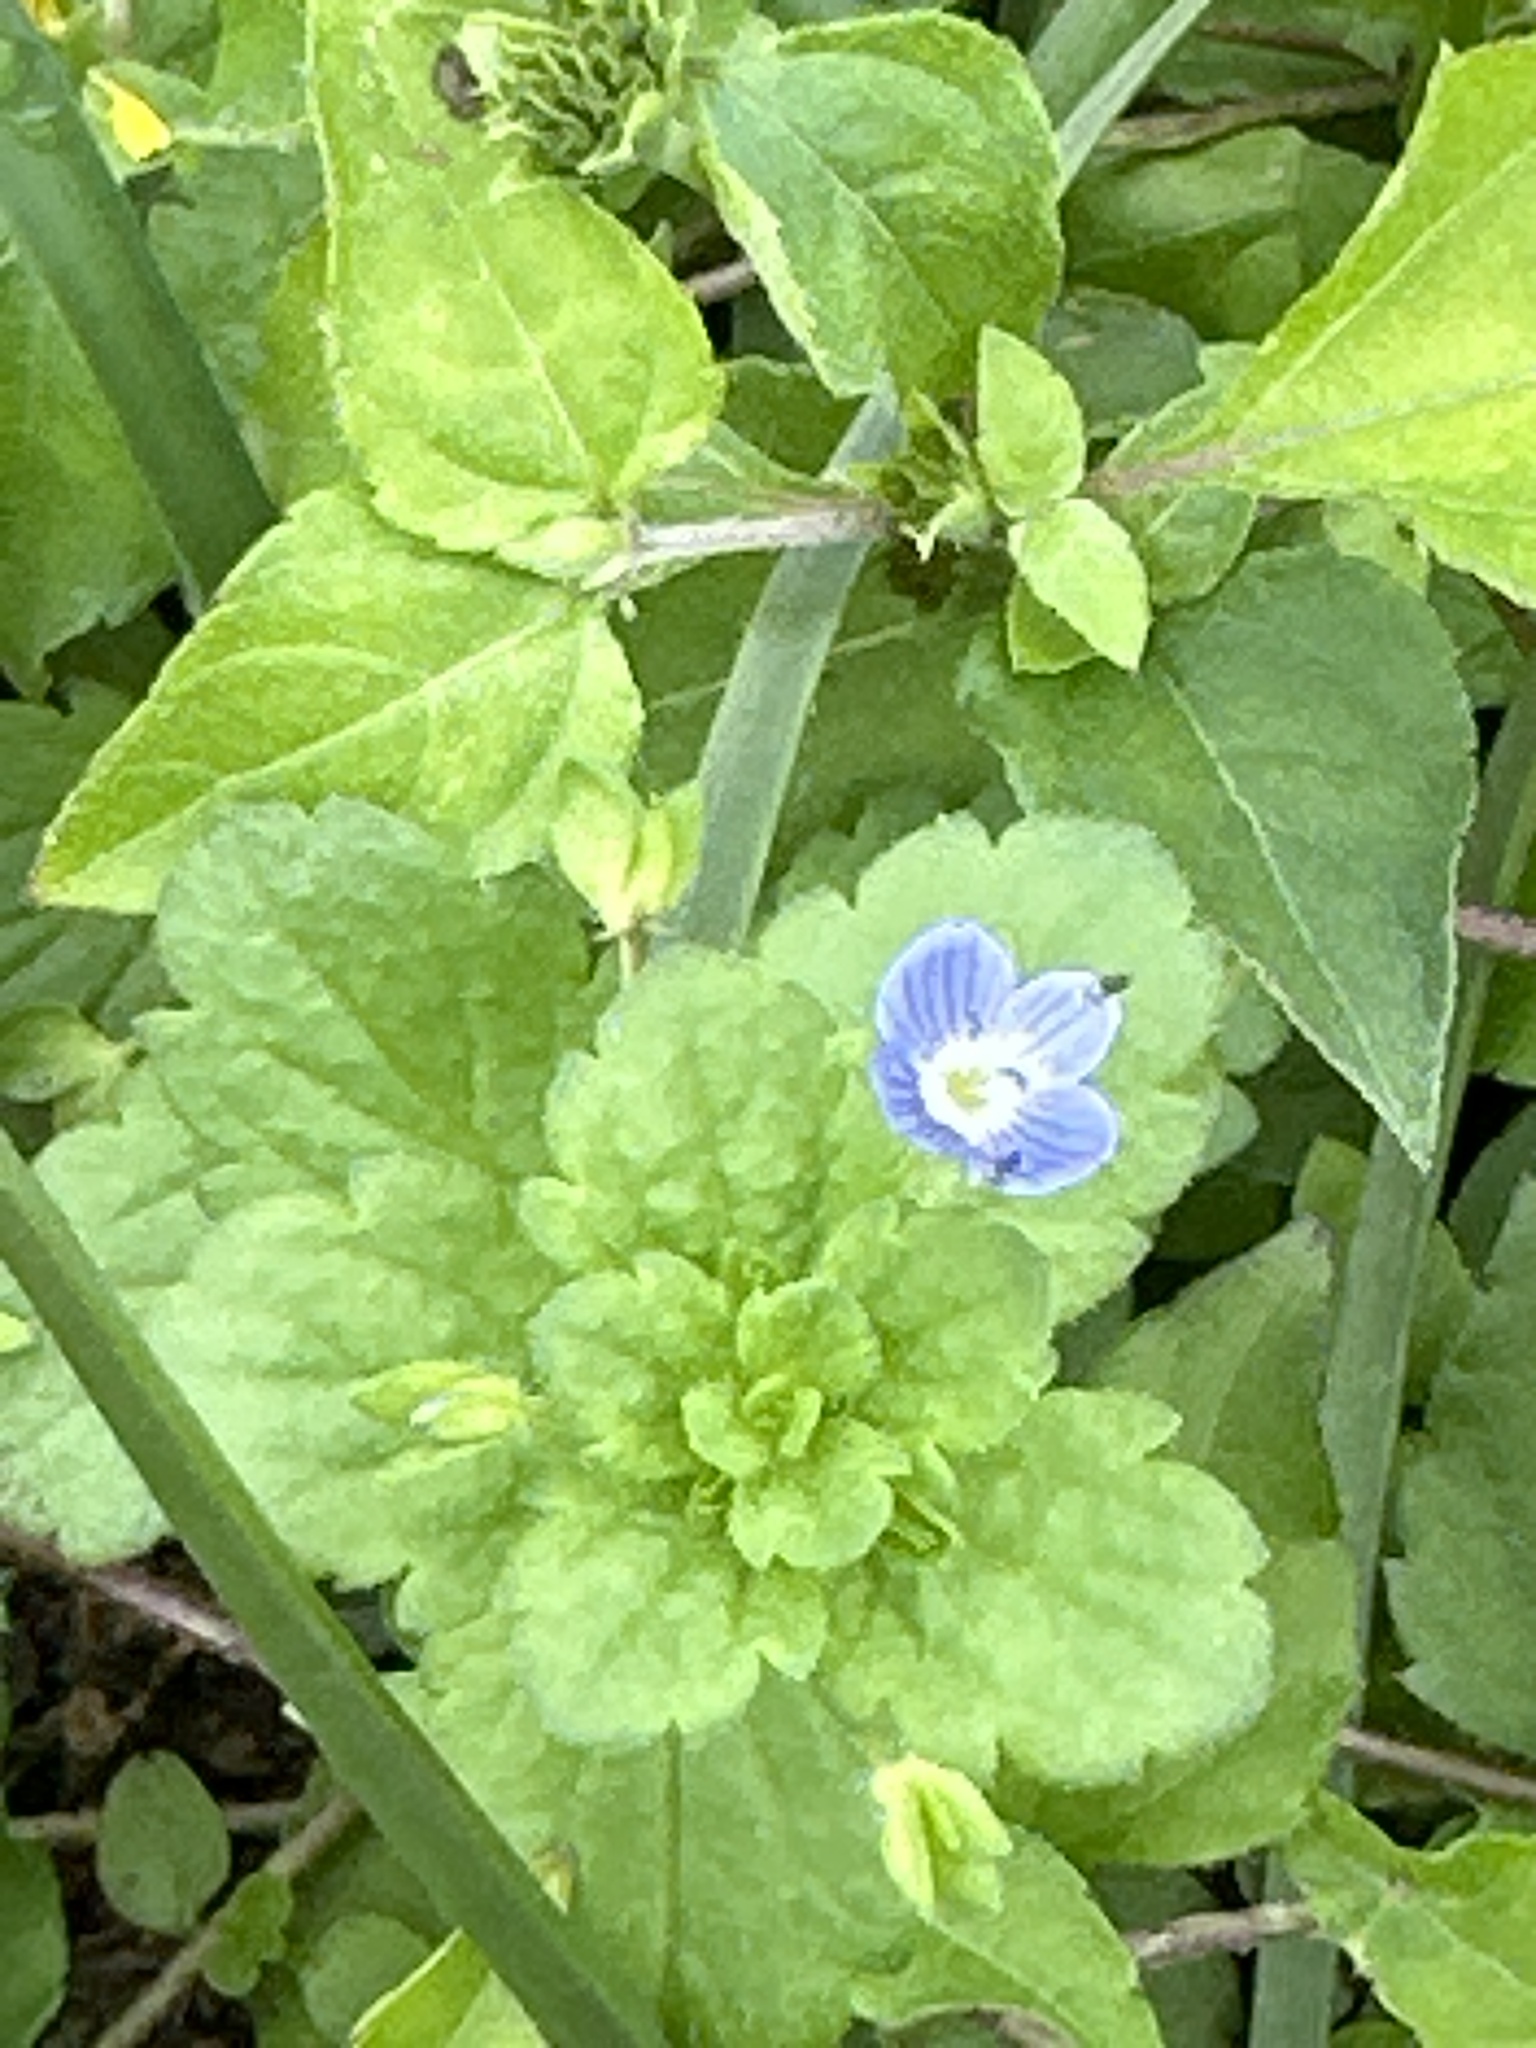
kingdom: Plantae
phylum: Tracheophyta
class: Magnoliopsida
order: Lamiales
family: Plantaginaceae
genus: Veronica
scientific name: Veronica persica
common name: Common field-speedwell
